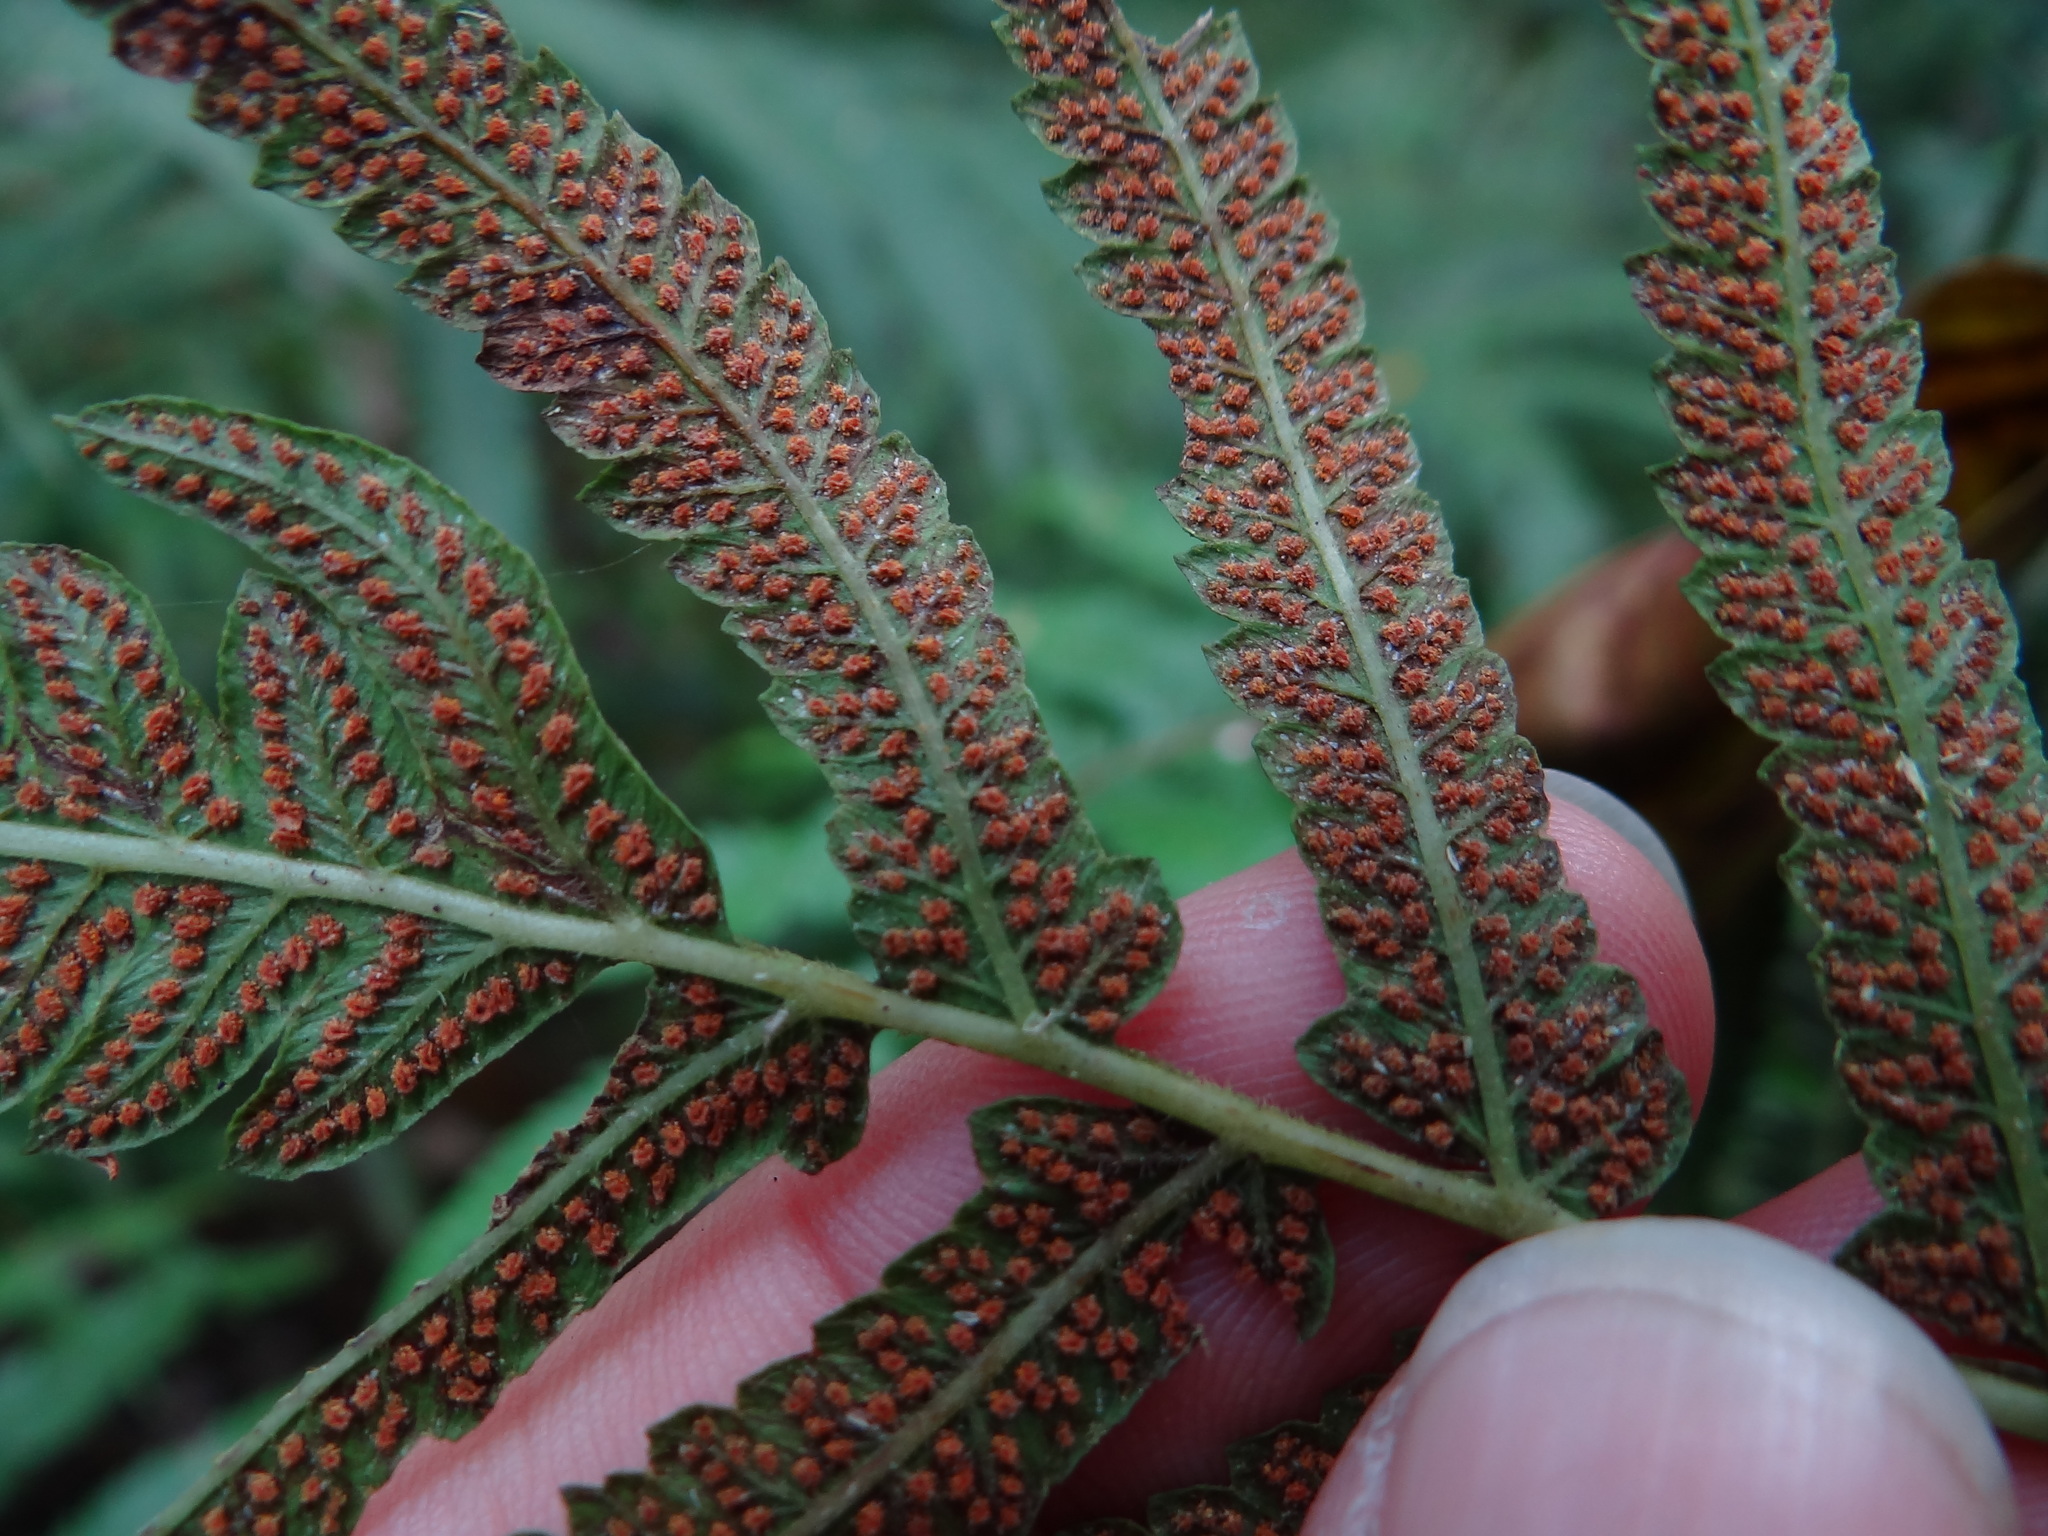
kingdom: Plantae
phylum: Tracheophyta
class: Polypodiopsida
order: Polypodiales
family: Thelypteridaceae
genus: Christella
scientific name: Christella acuminata
